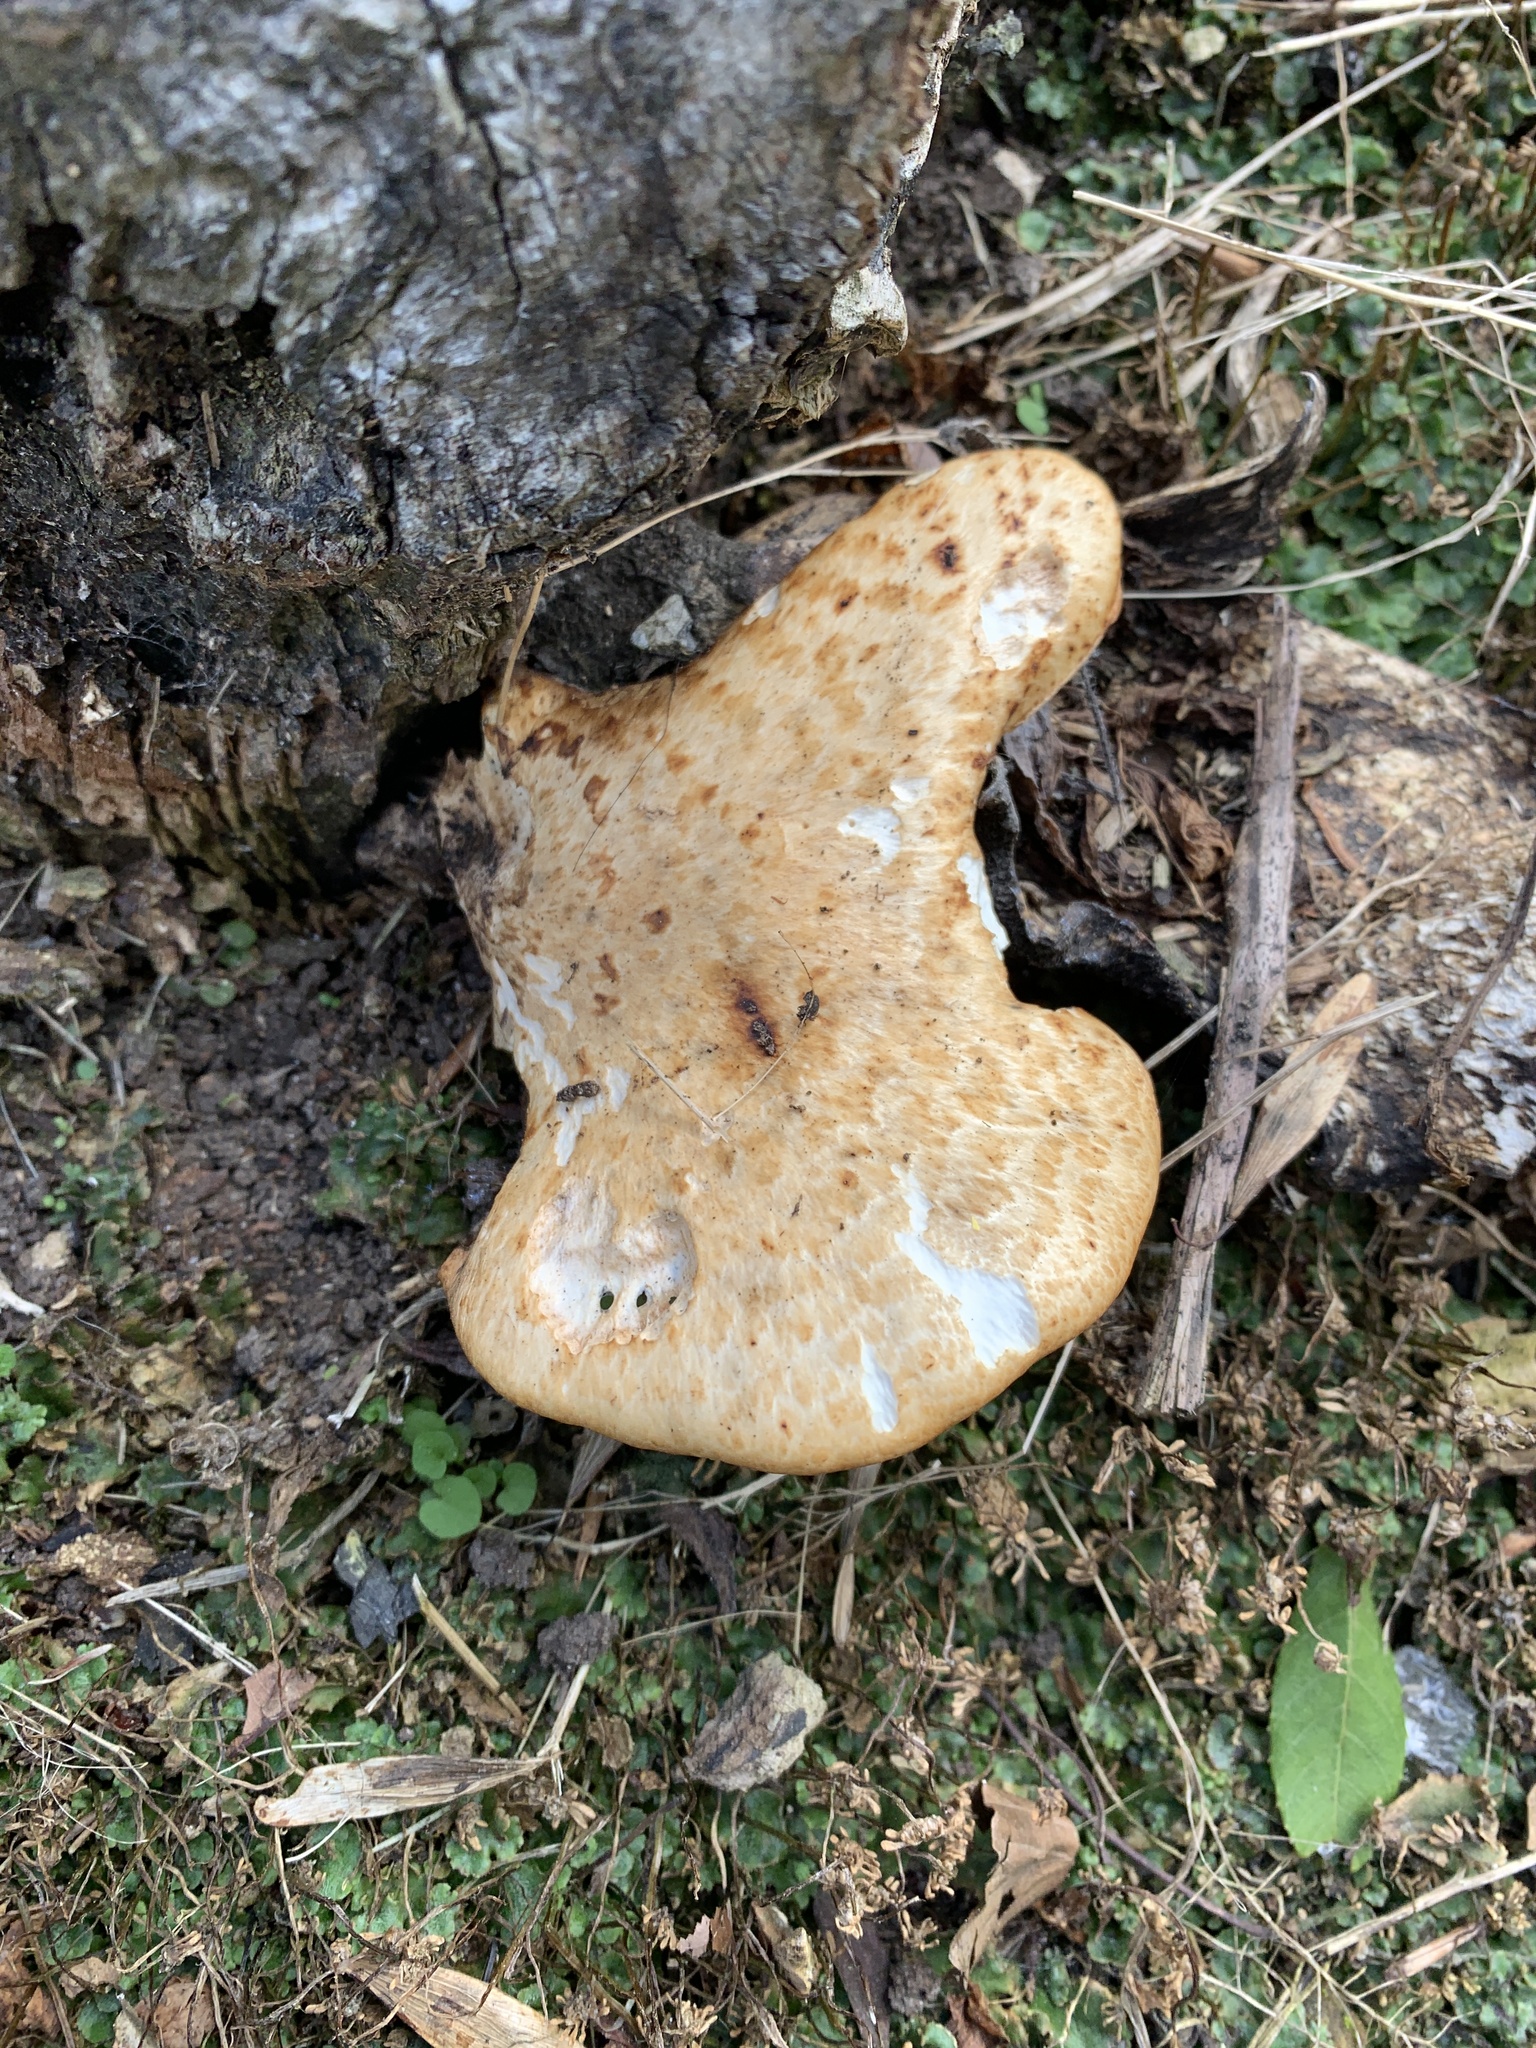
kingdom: Fungi
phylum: Basidiomycota
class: Agaricomycetes
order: Polyporales
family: Polyporaceae
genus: Cerioporus
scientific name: Cerioporus squamosus
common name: Dryad's saddle
